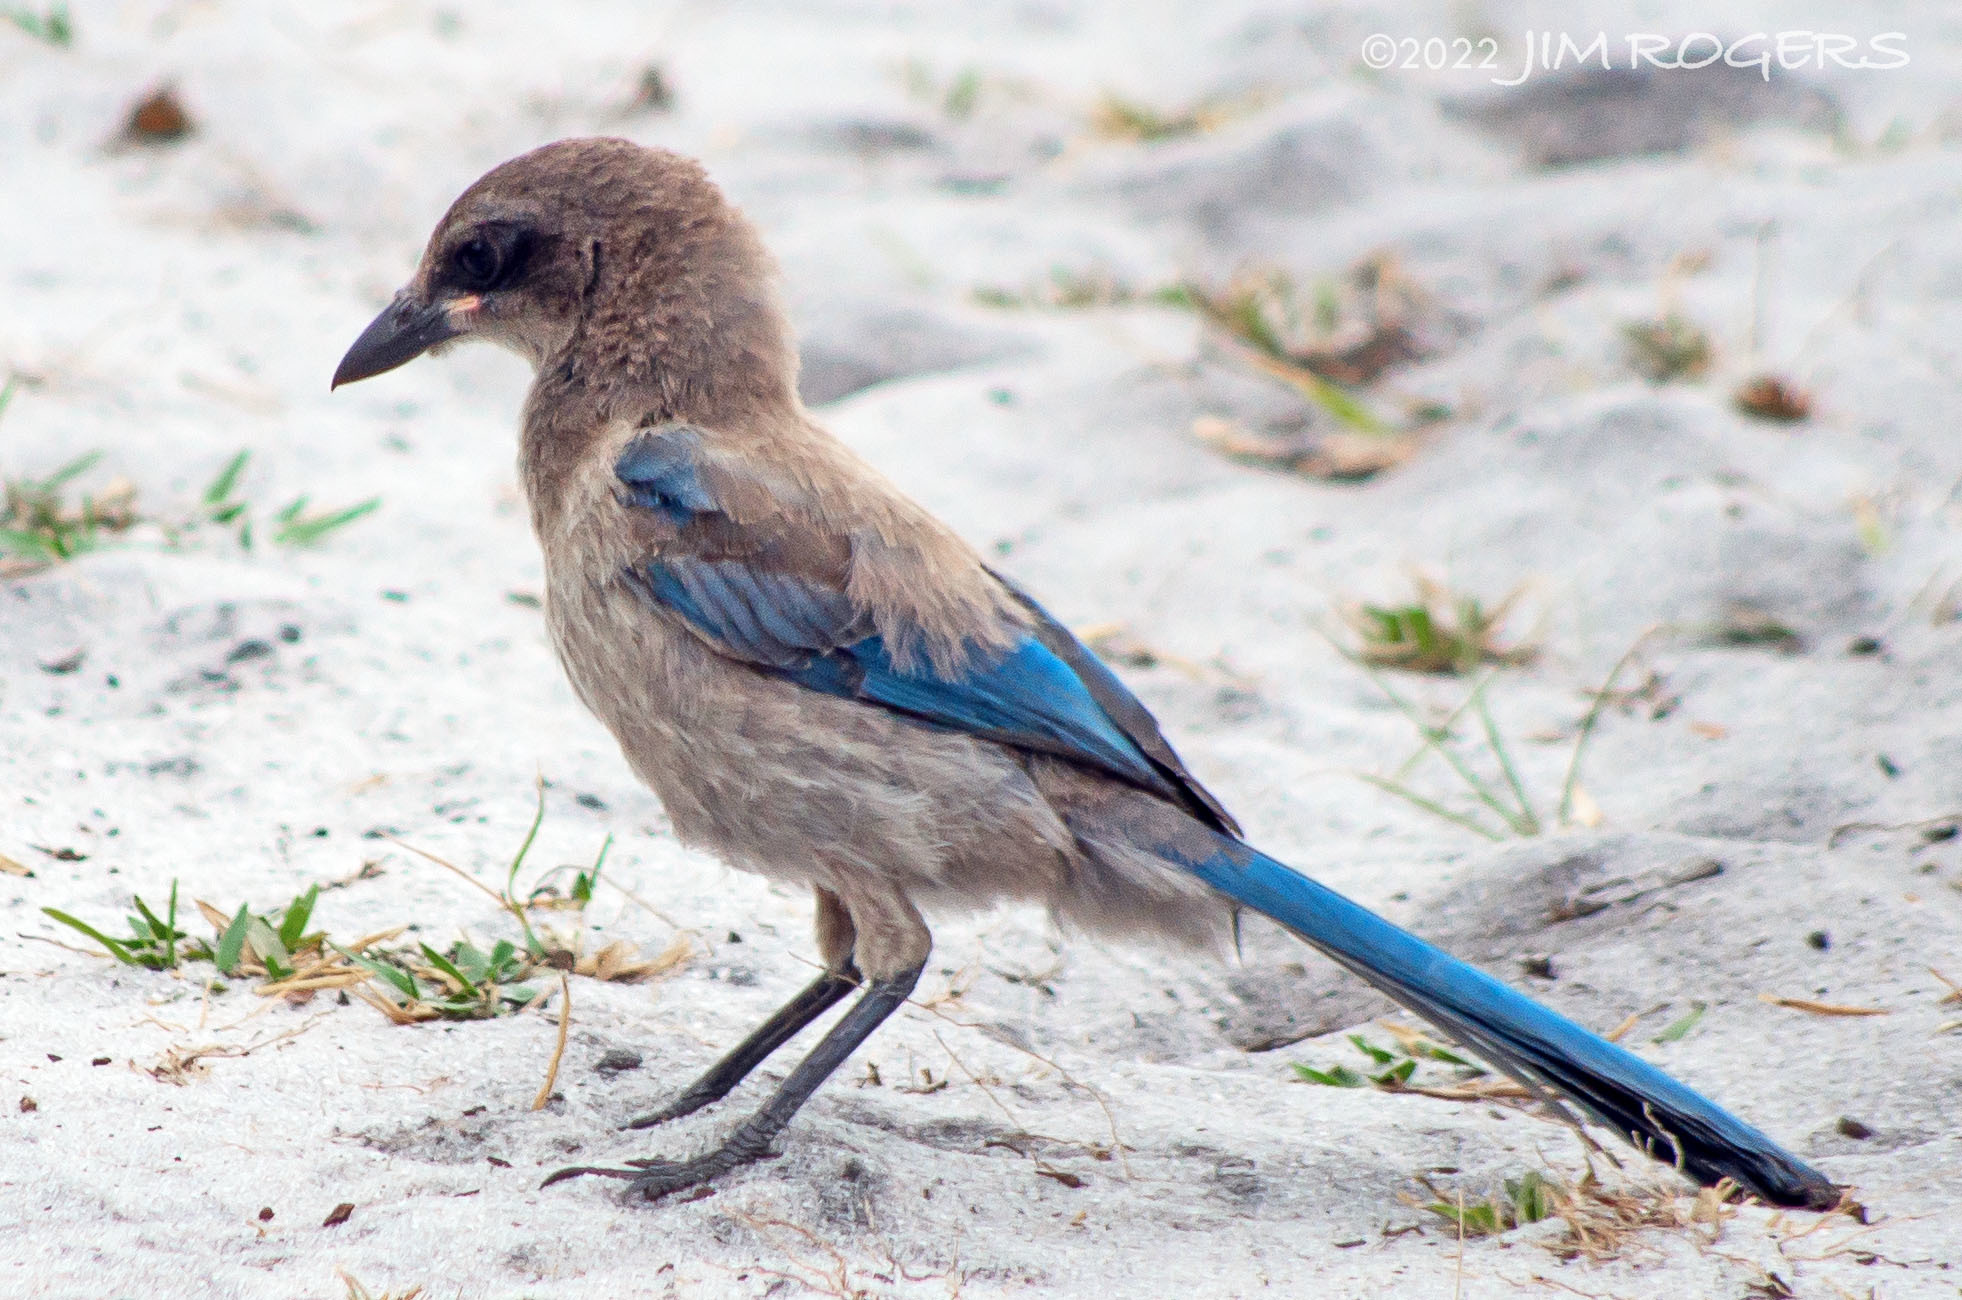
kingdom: Animalia
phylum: Chordata
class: Aves
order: Passeriformes
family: Corvidae
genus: Aphelocoma
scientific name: Aphelocoma coerulescens
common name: Florida scrub jay
